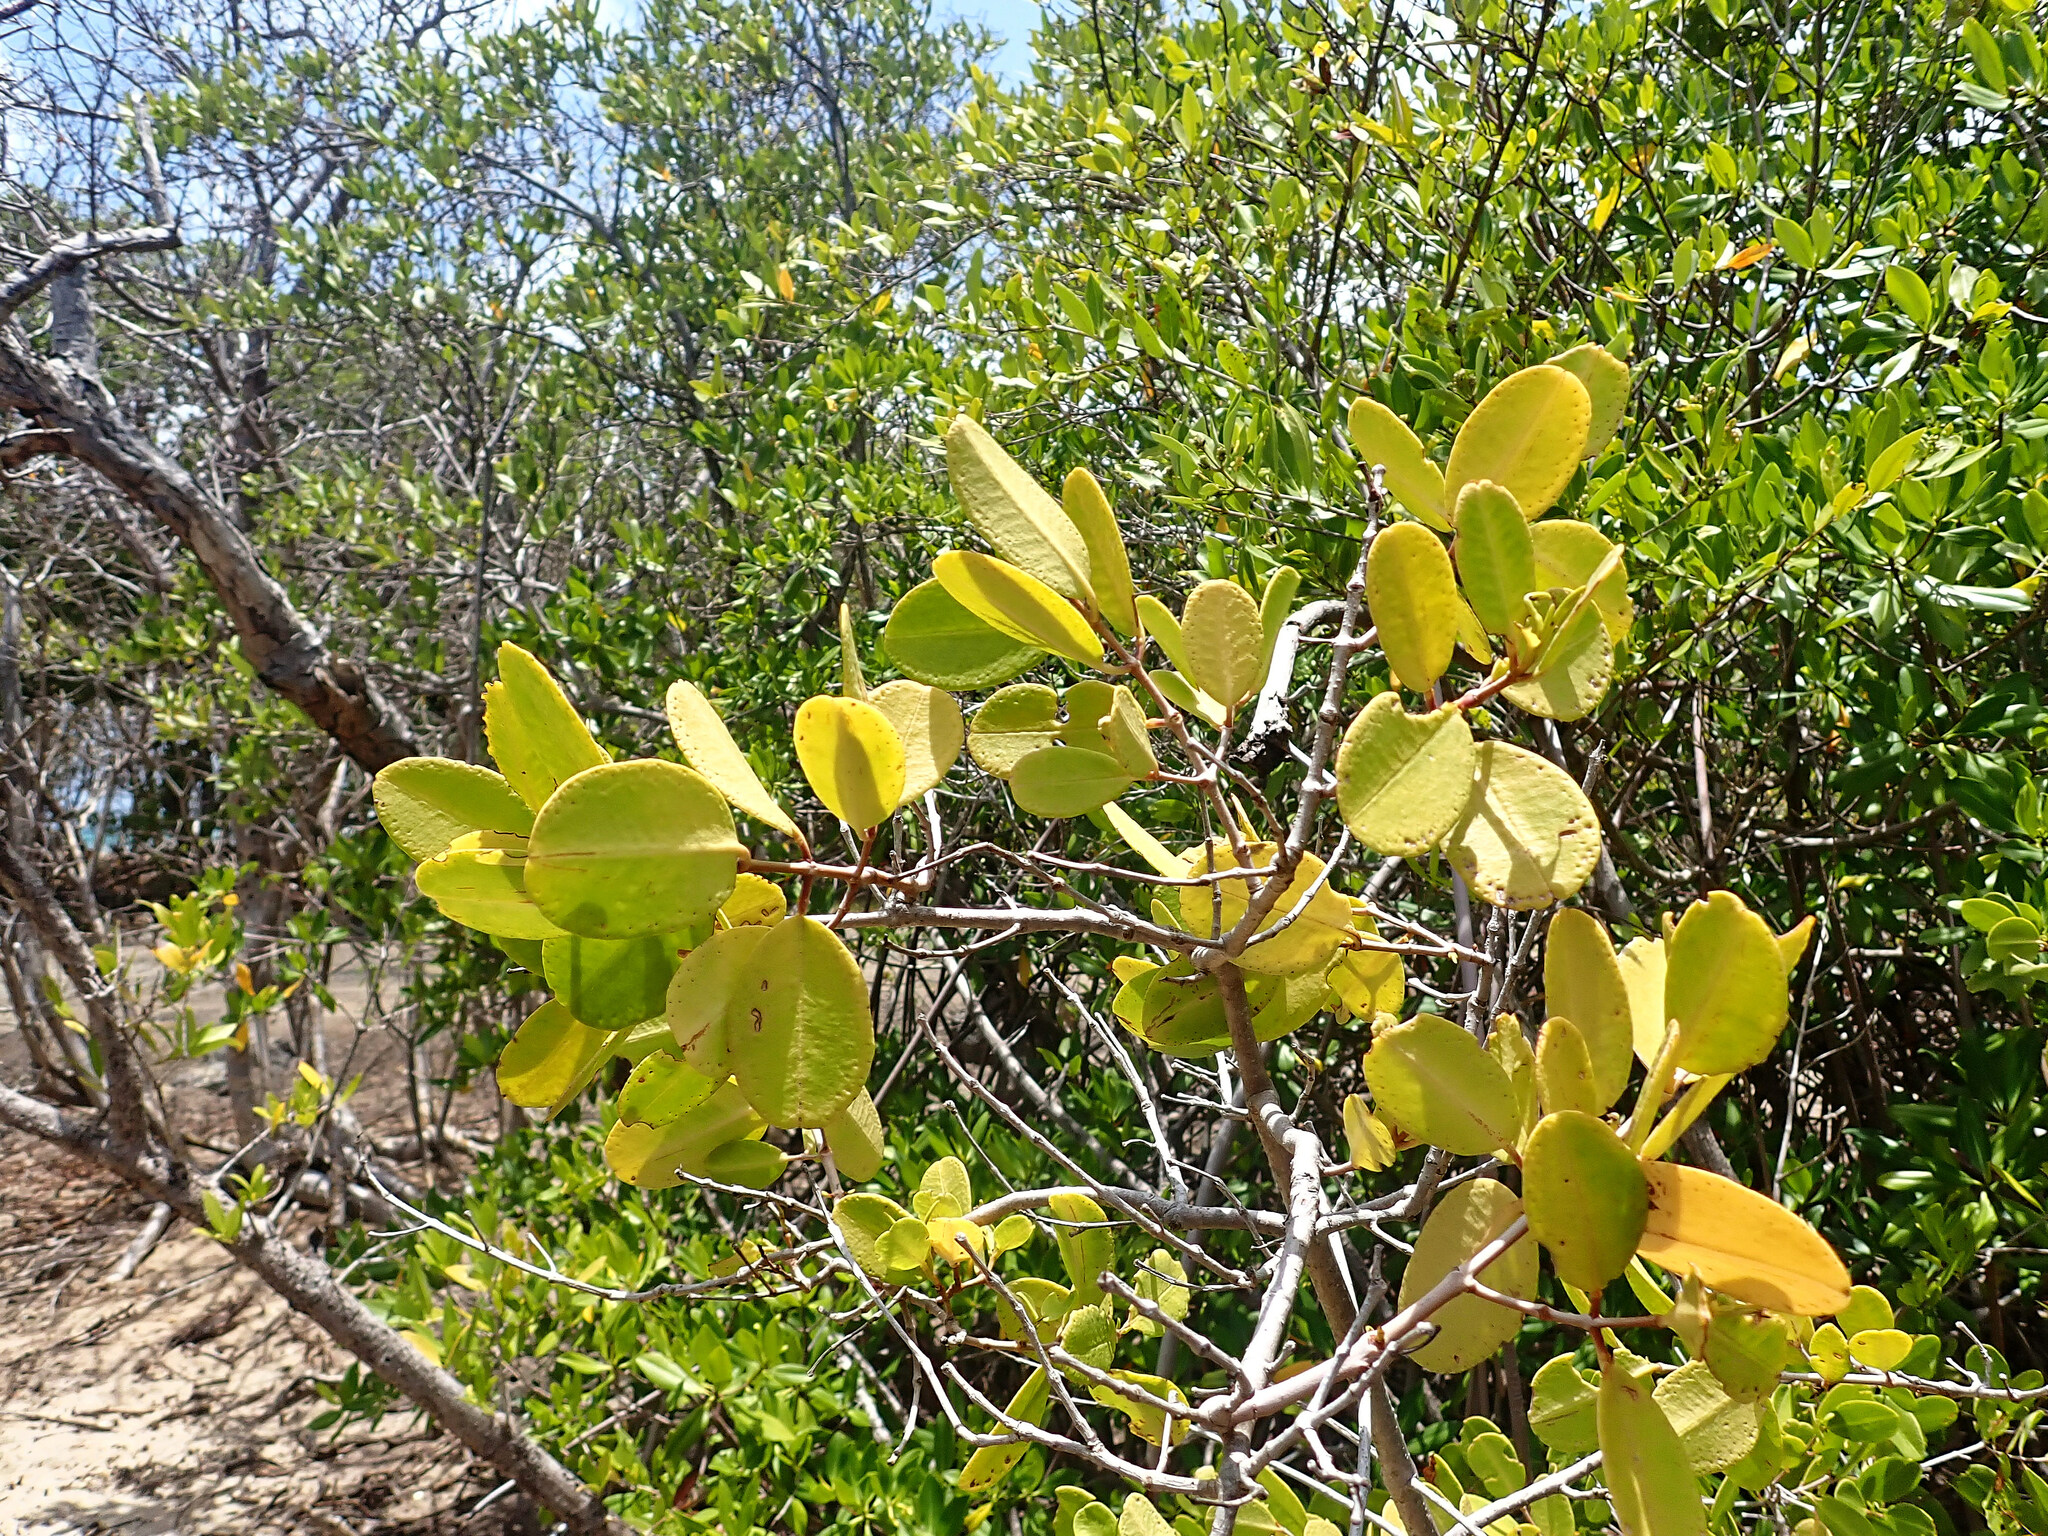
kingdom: Plantae
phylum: Tracheophyta
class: Magnoliopsida
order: Myrtales
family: Combretaceae
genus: Laguncularia
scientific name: Laguncularia racemosa
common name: White mangrove
